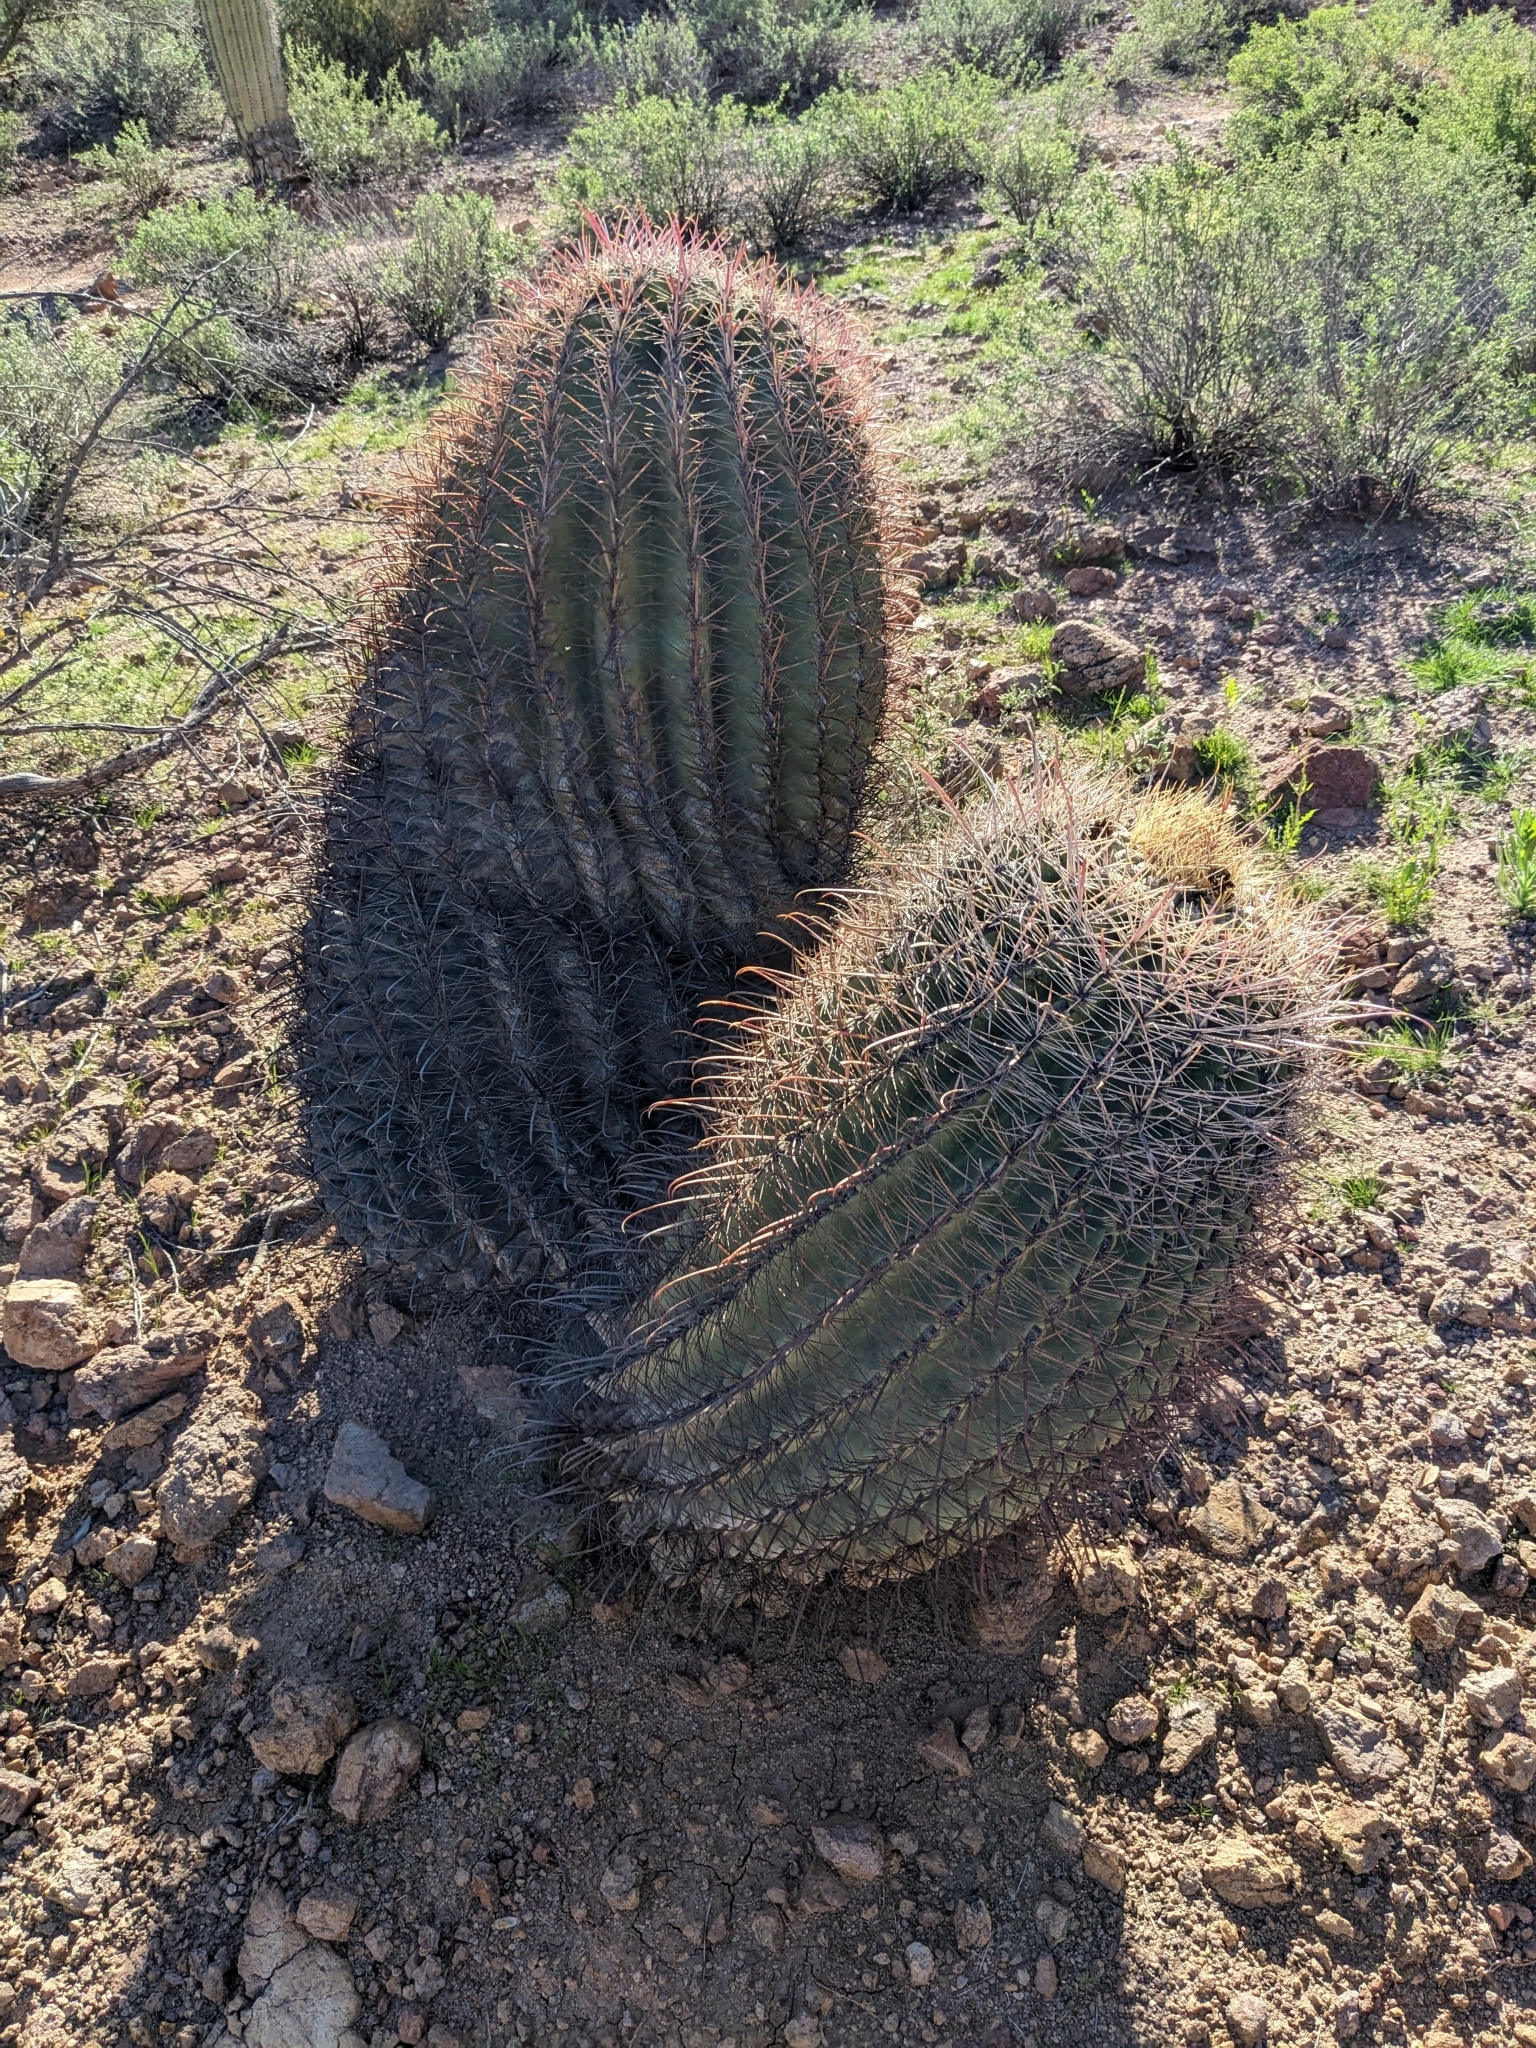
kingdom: Plantae
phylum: Tracheophyta
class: Magnoliopsida
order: Caryophyllales
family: Cactaceae
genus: Ferocactus
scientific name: Ferocactus wislizeni
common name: Candy barrel cactus
